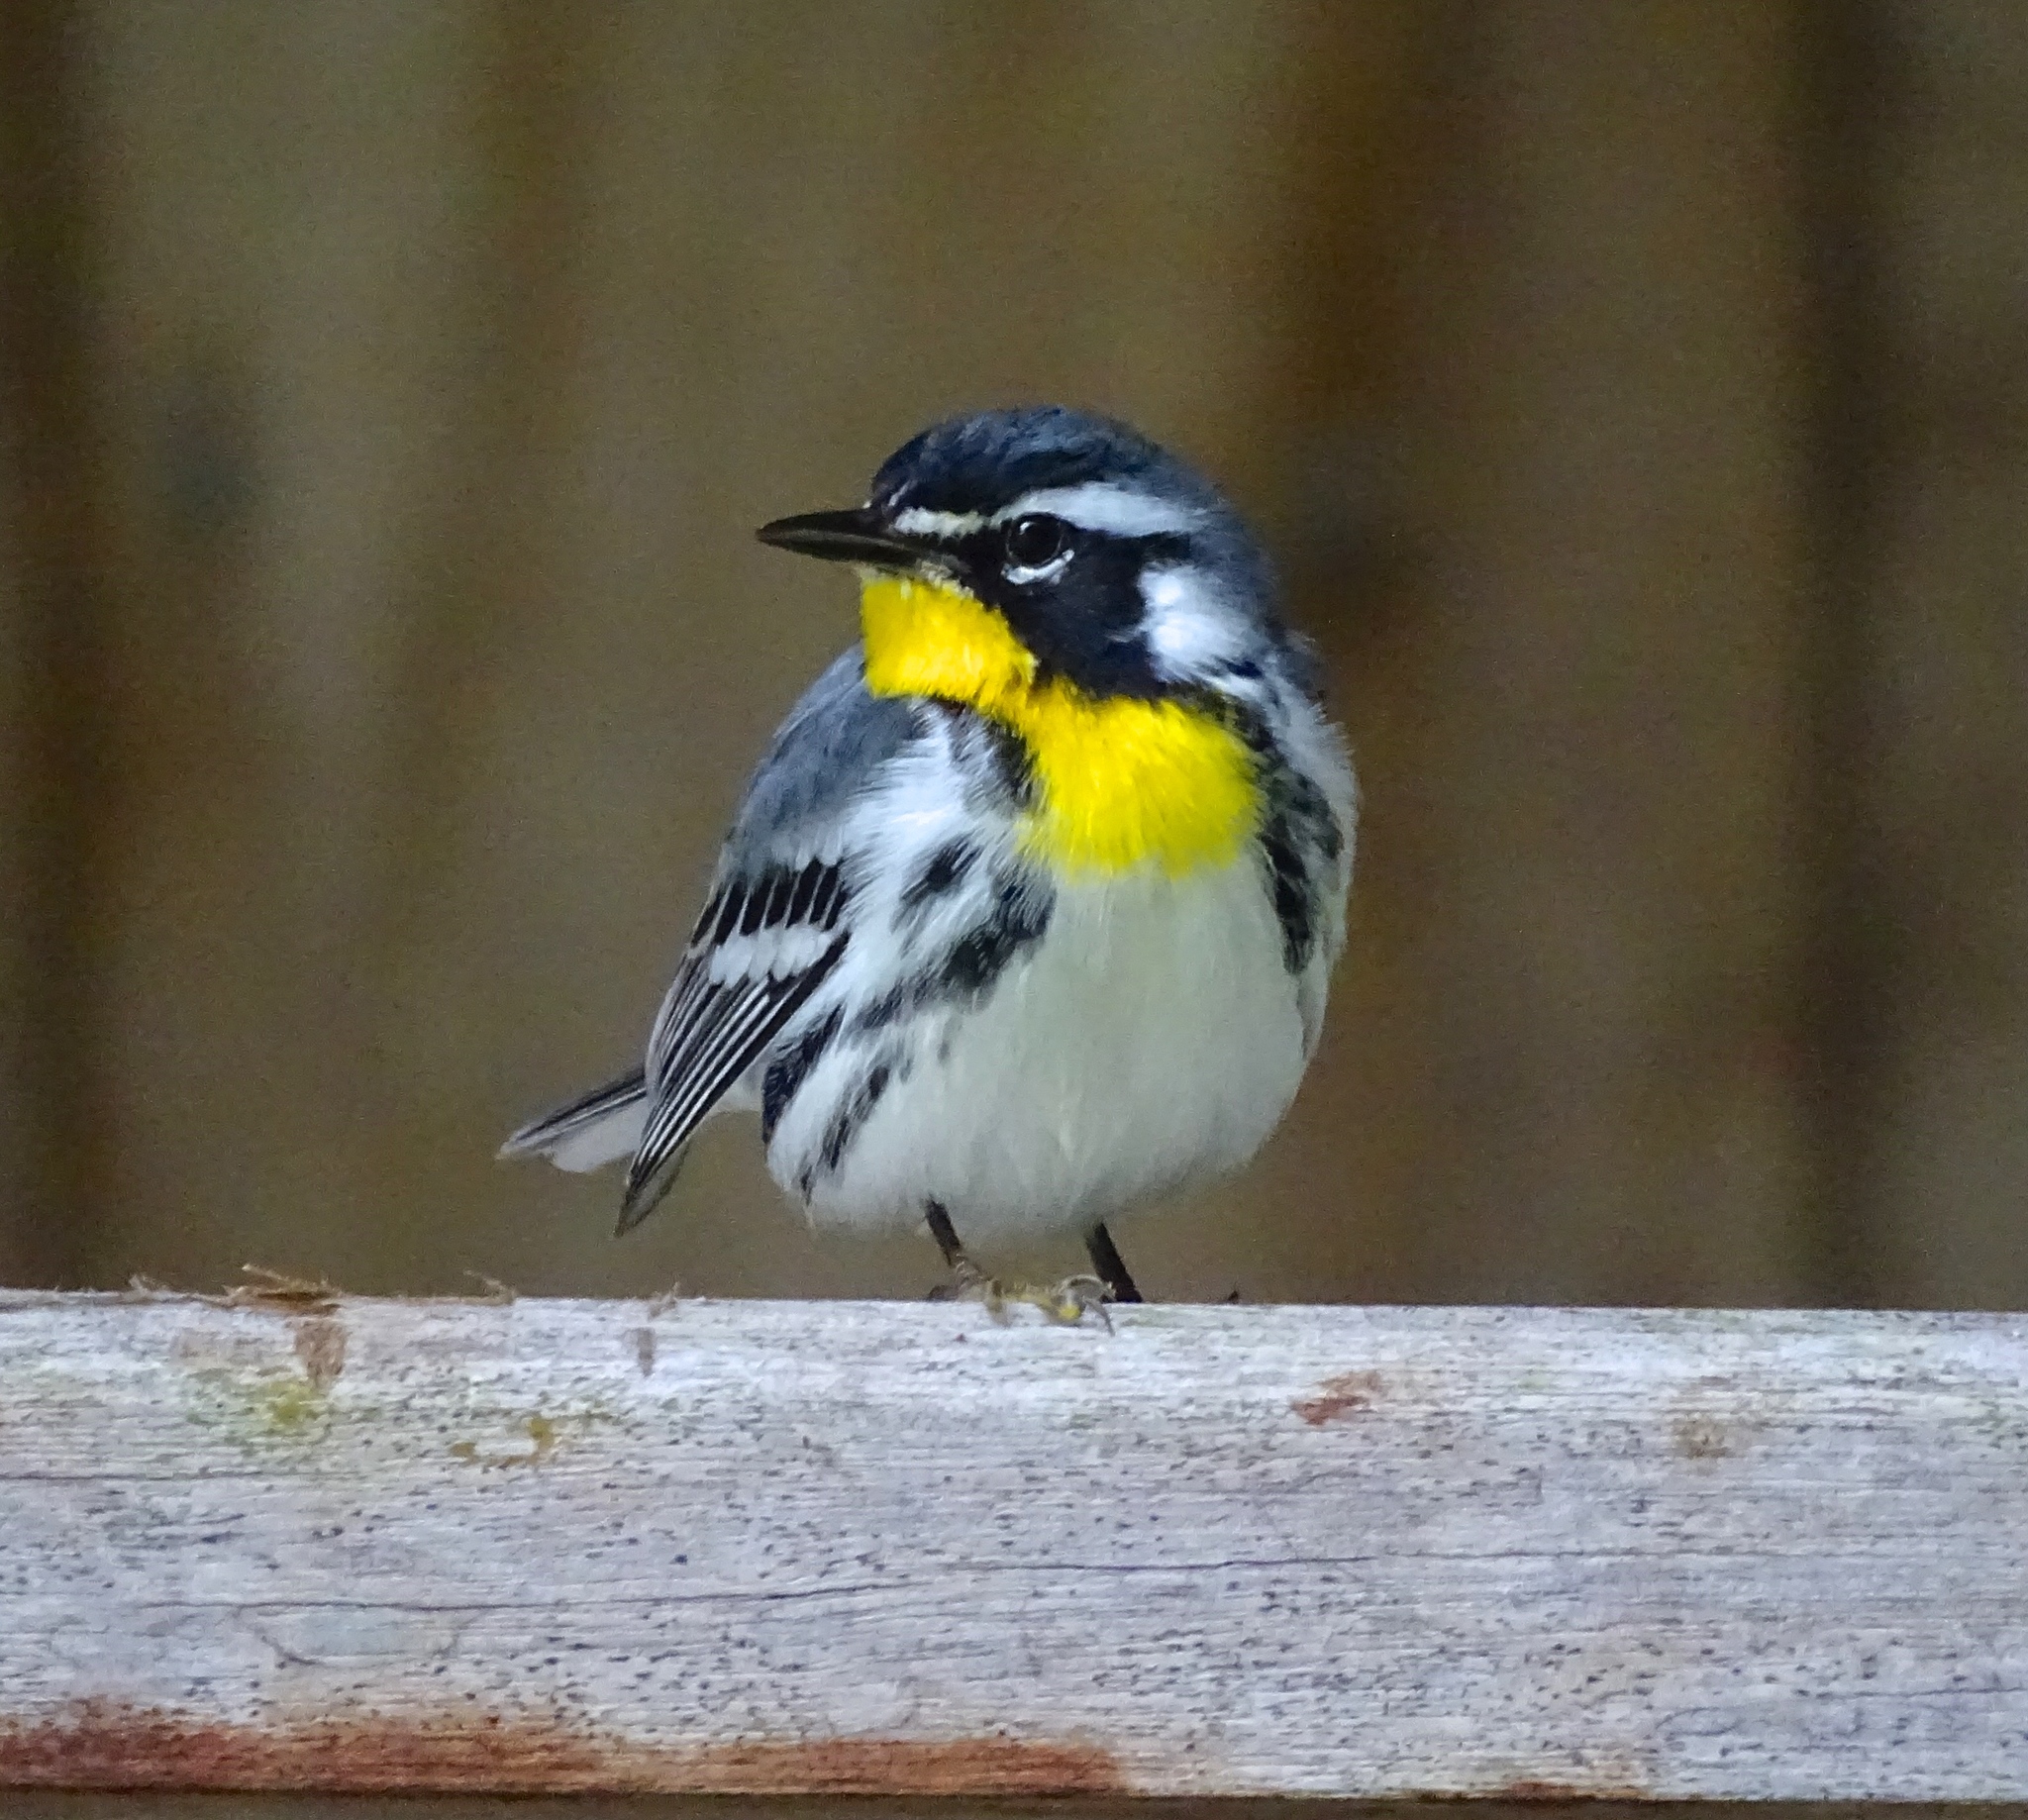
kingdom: Animalia
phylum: Chordata
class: Aves
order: Passeriformes
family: Parulidae
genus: Setophaga
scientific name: Setophaga dominica
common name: Yellow-throated warbler
